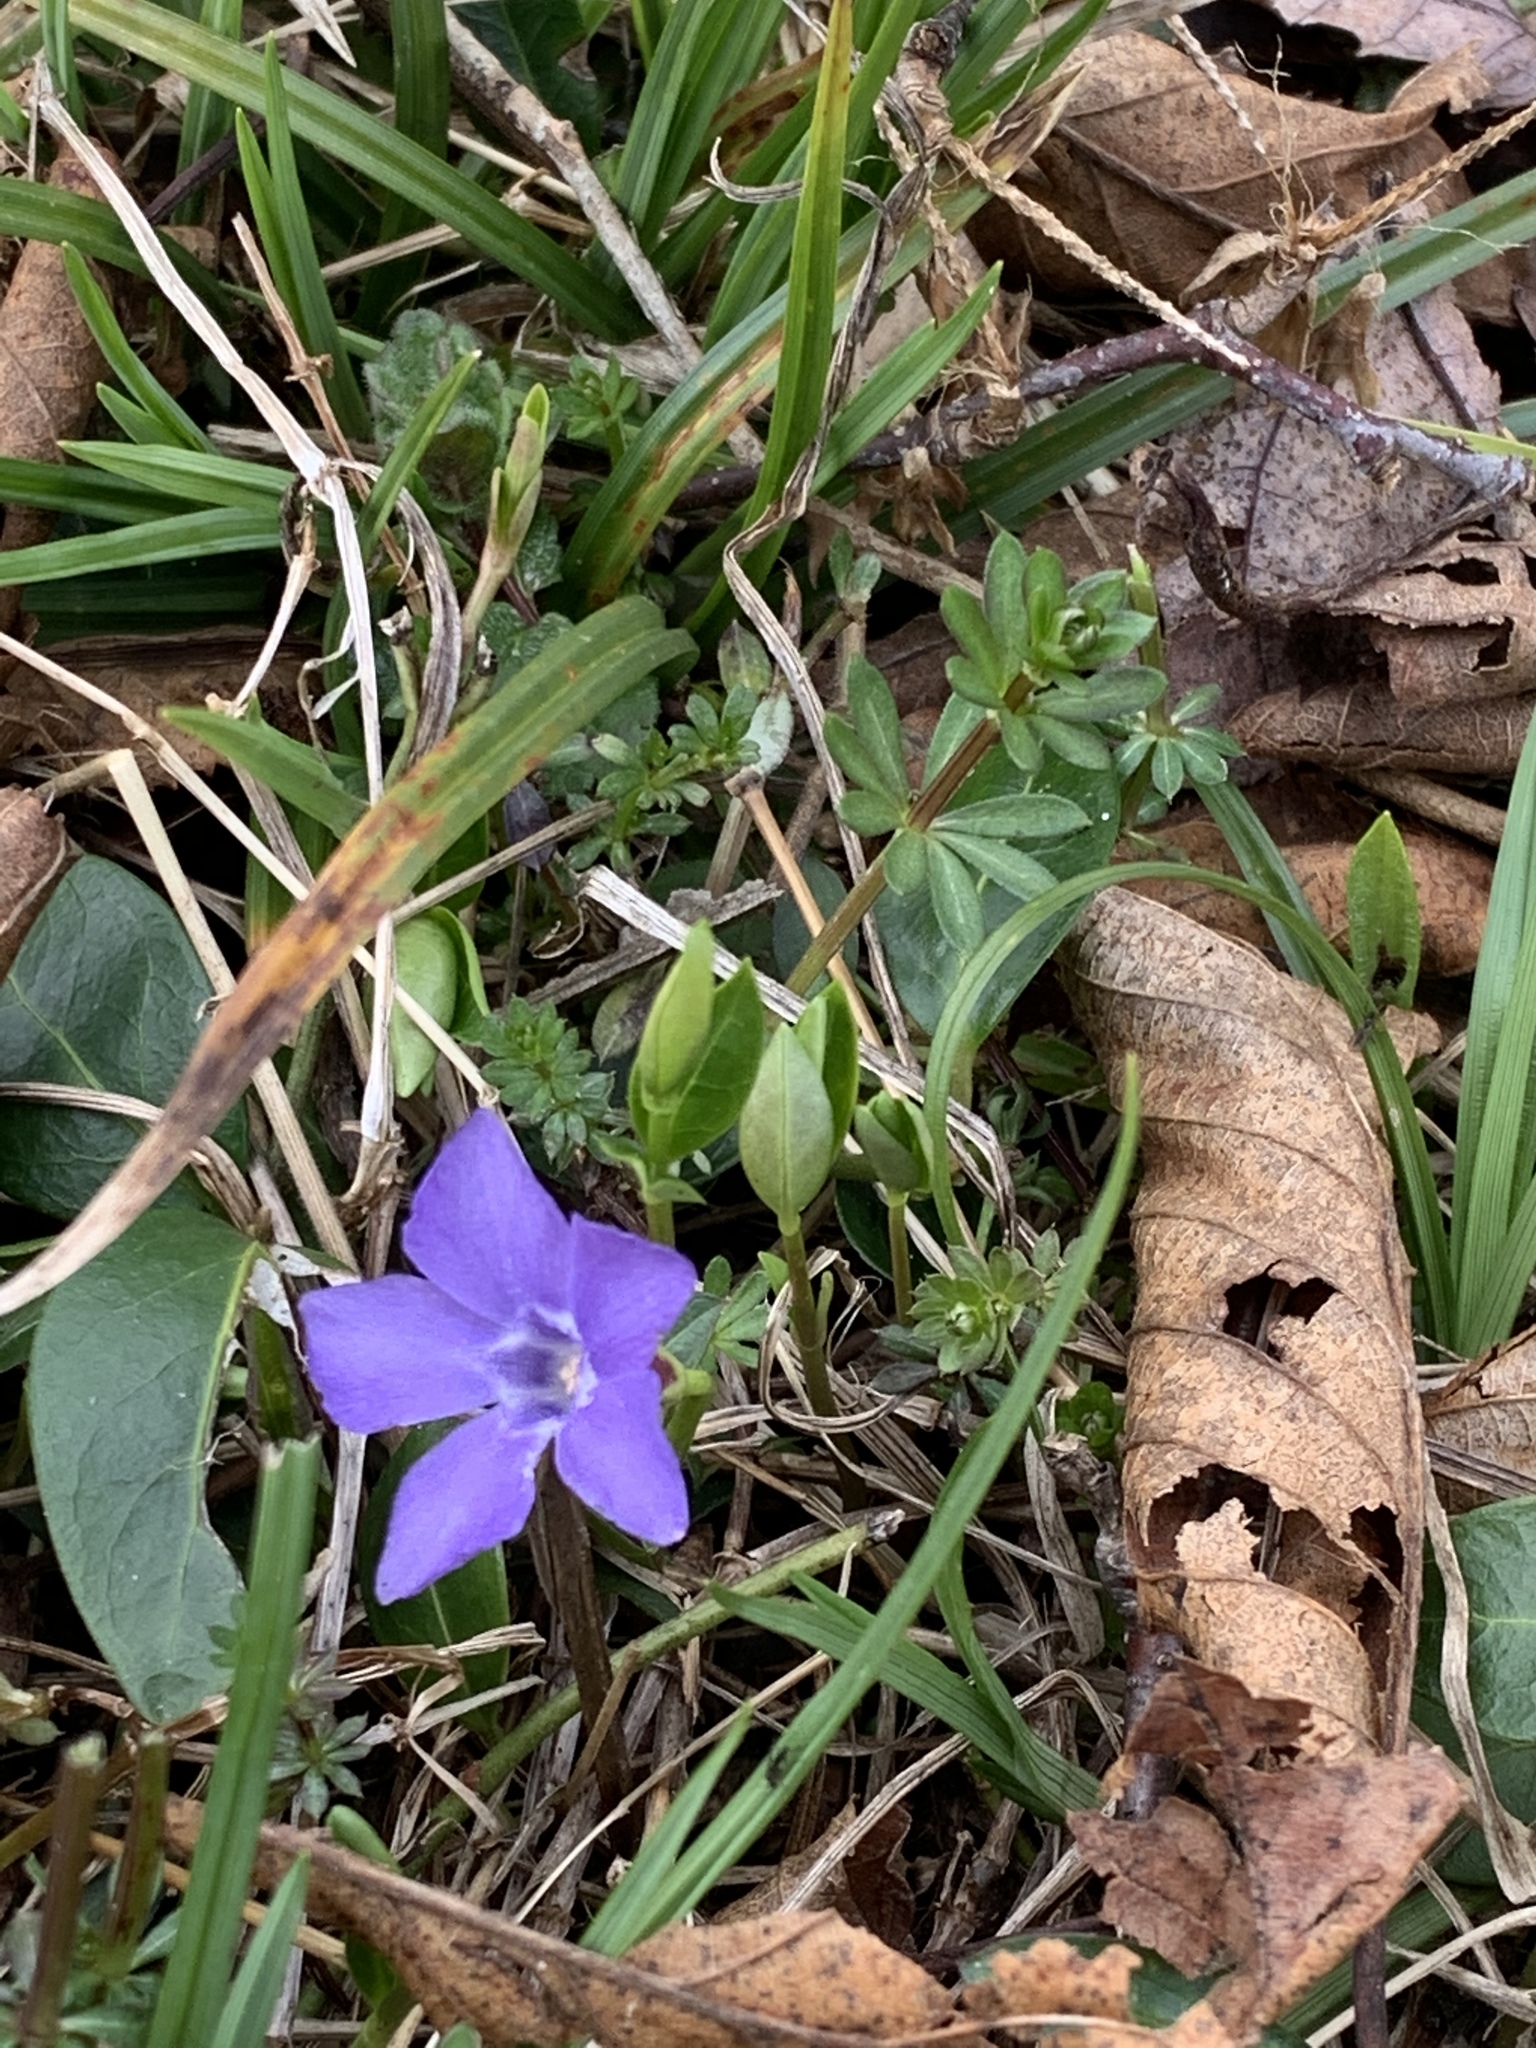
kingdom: Plantae
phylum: Tracheophyta
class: Magnoliopsida
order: Gentianales
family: Apocynaceae
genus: Vinca
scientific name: Vinca minor
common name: Lesser periwinkle
